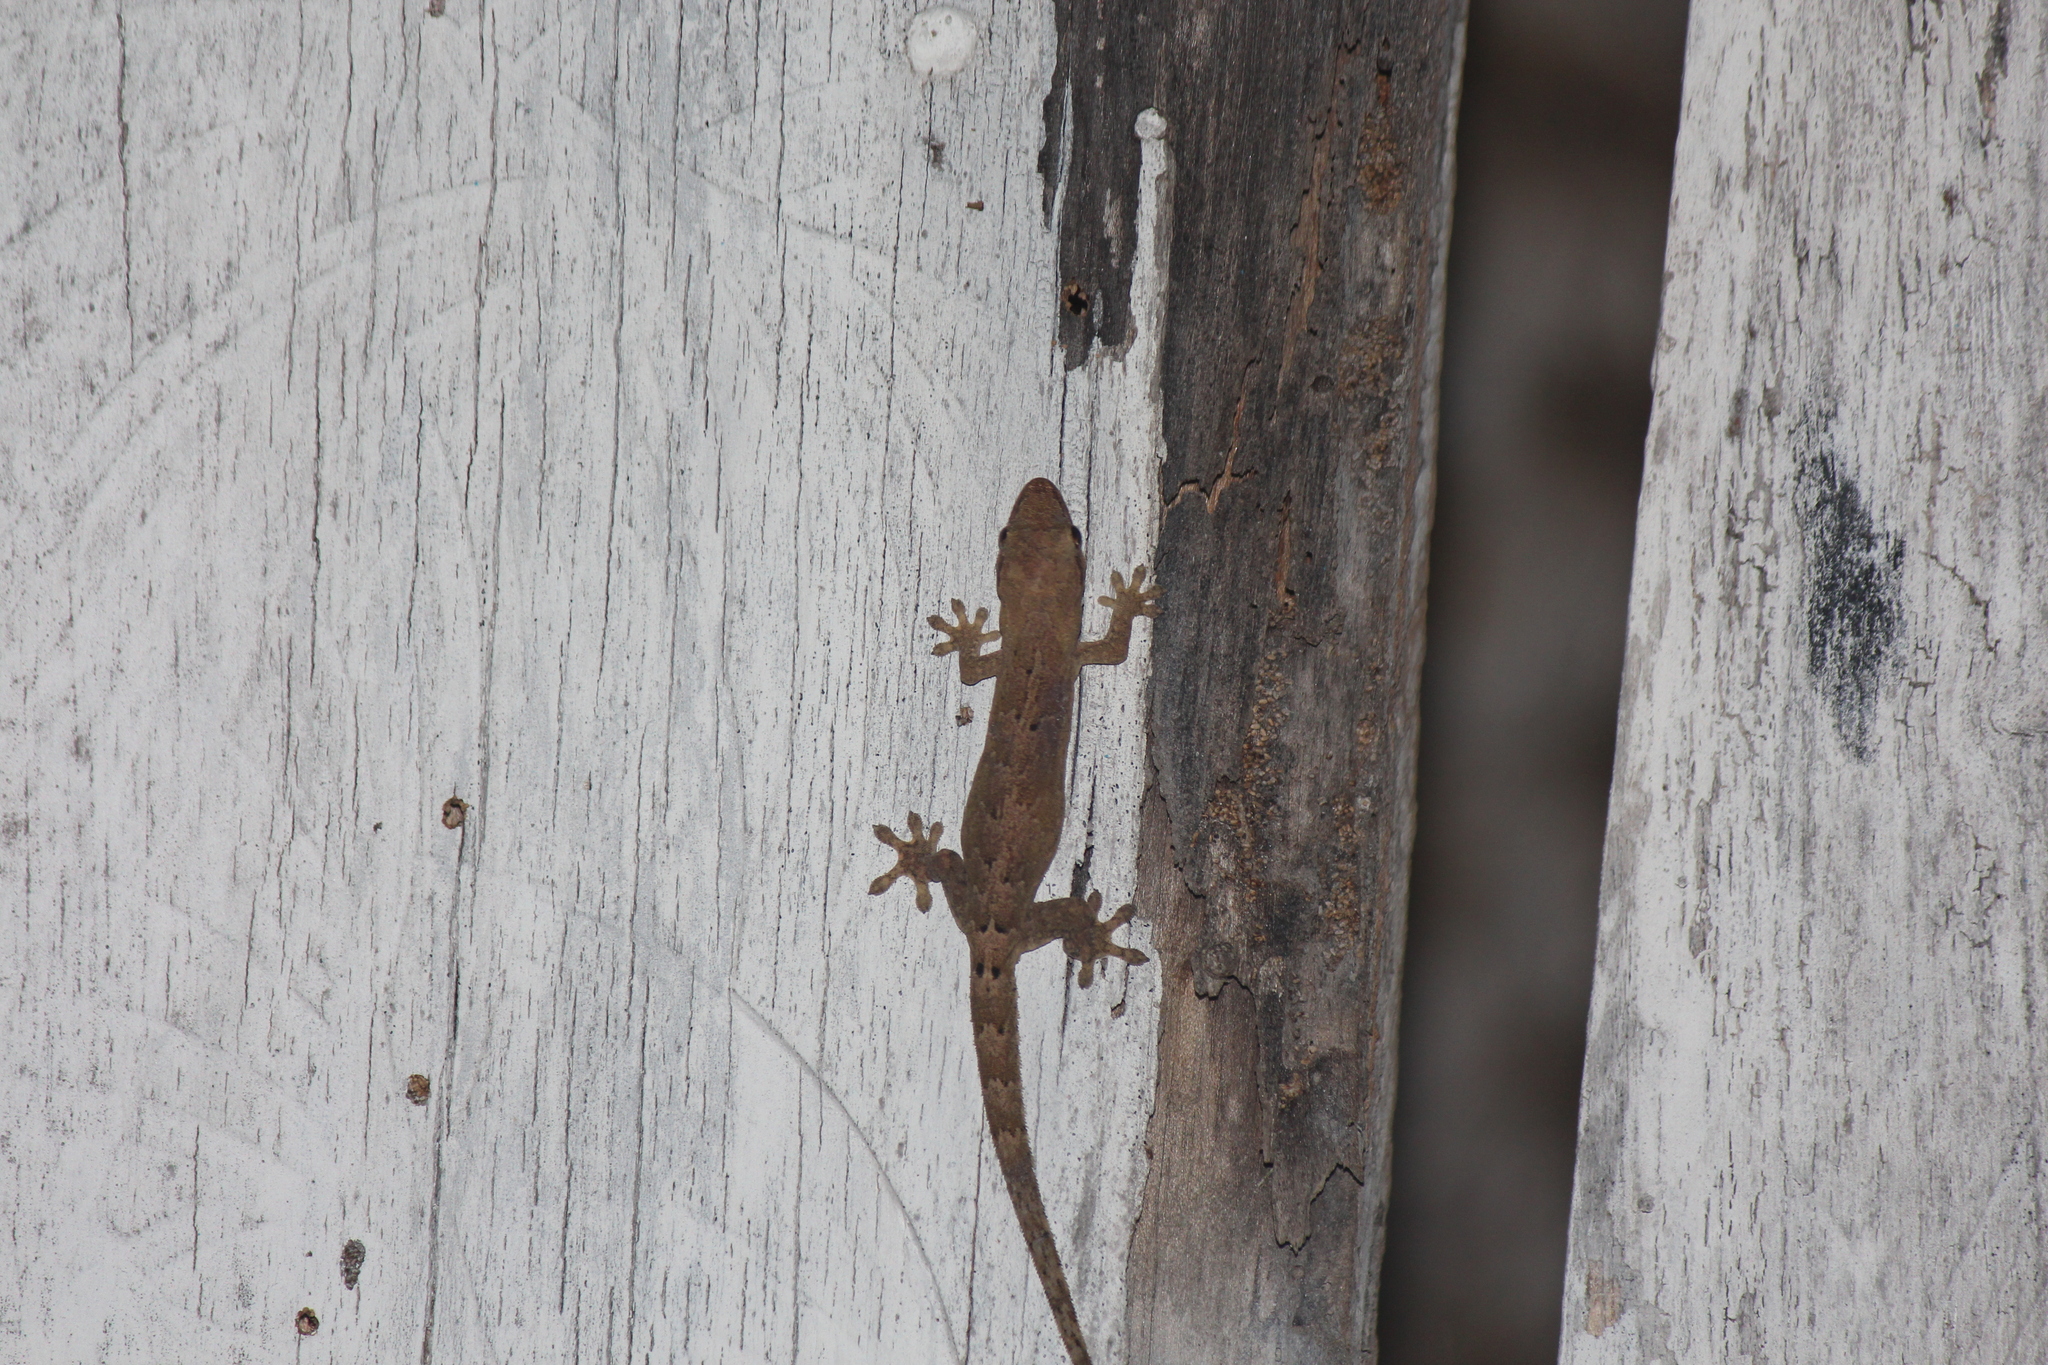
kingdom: Animalia
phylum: Chordata
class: Squamata
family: Gekkonidae
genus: Lepidodactylus
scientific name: Lepidodactylus lugubris
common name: Mourning gecko
